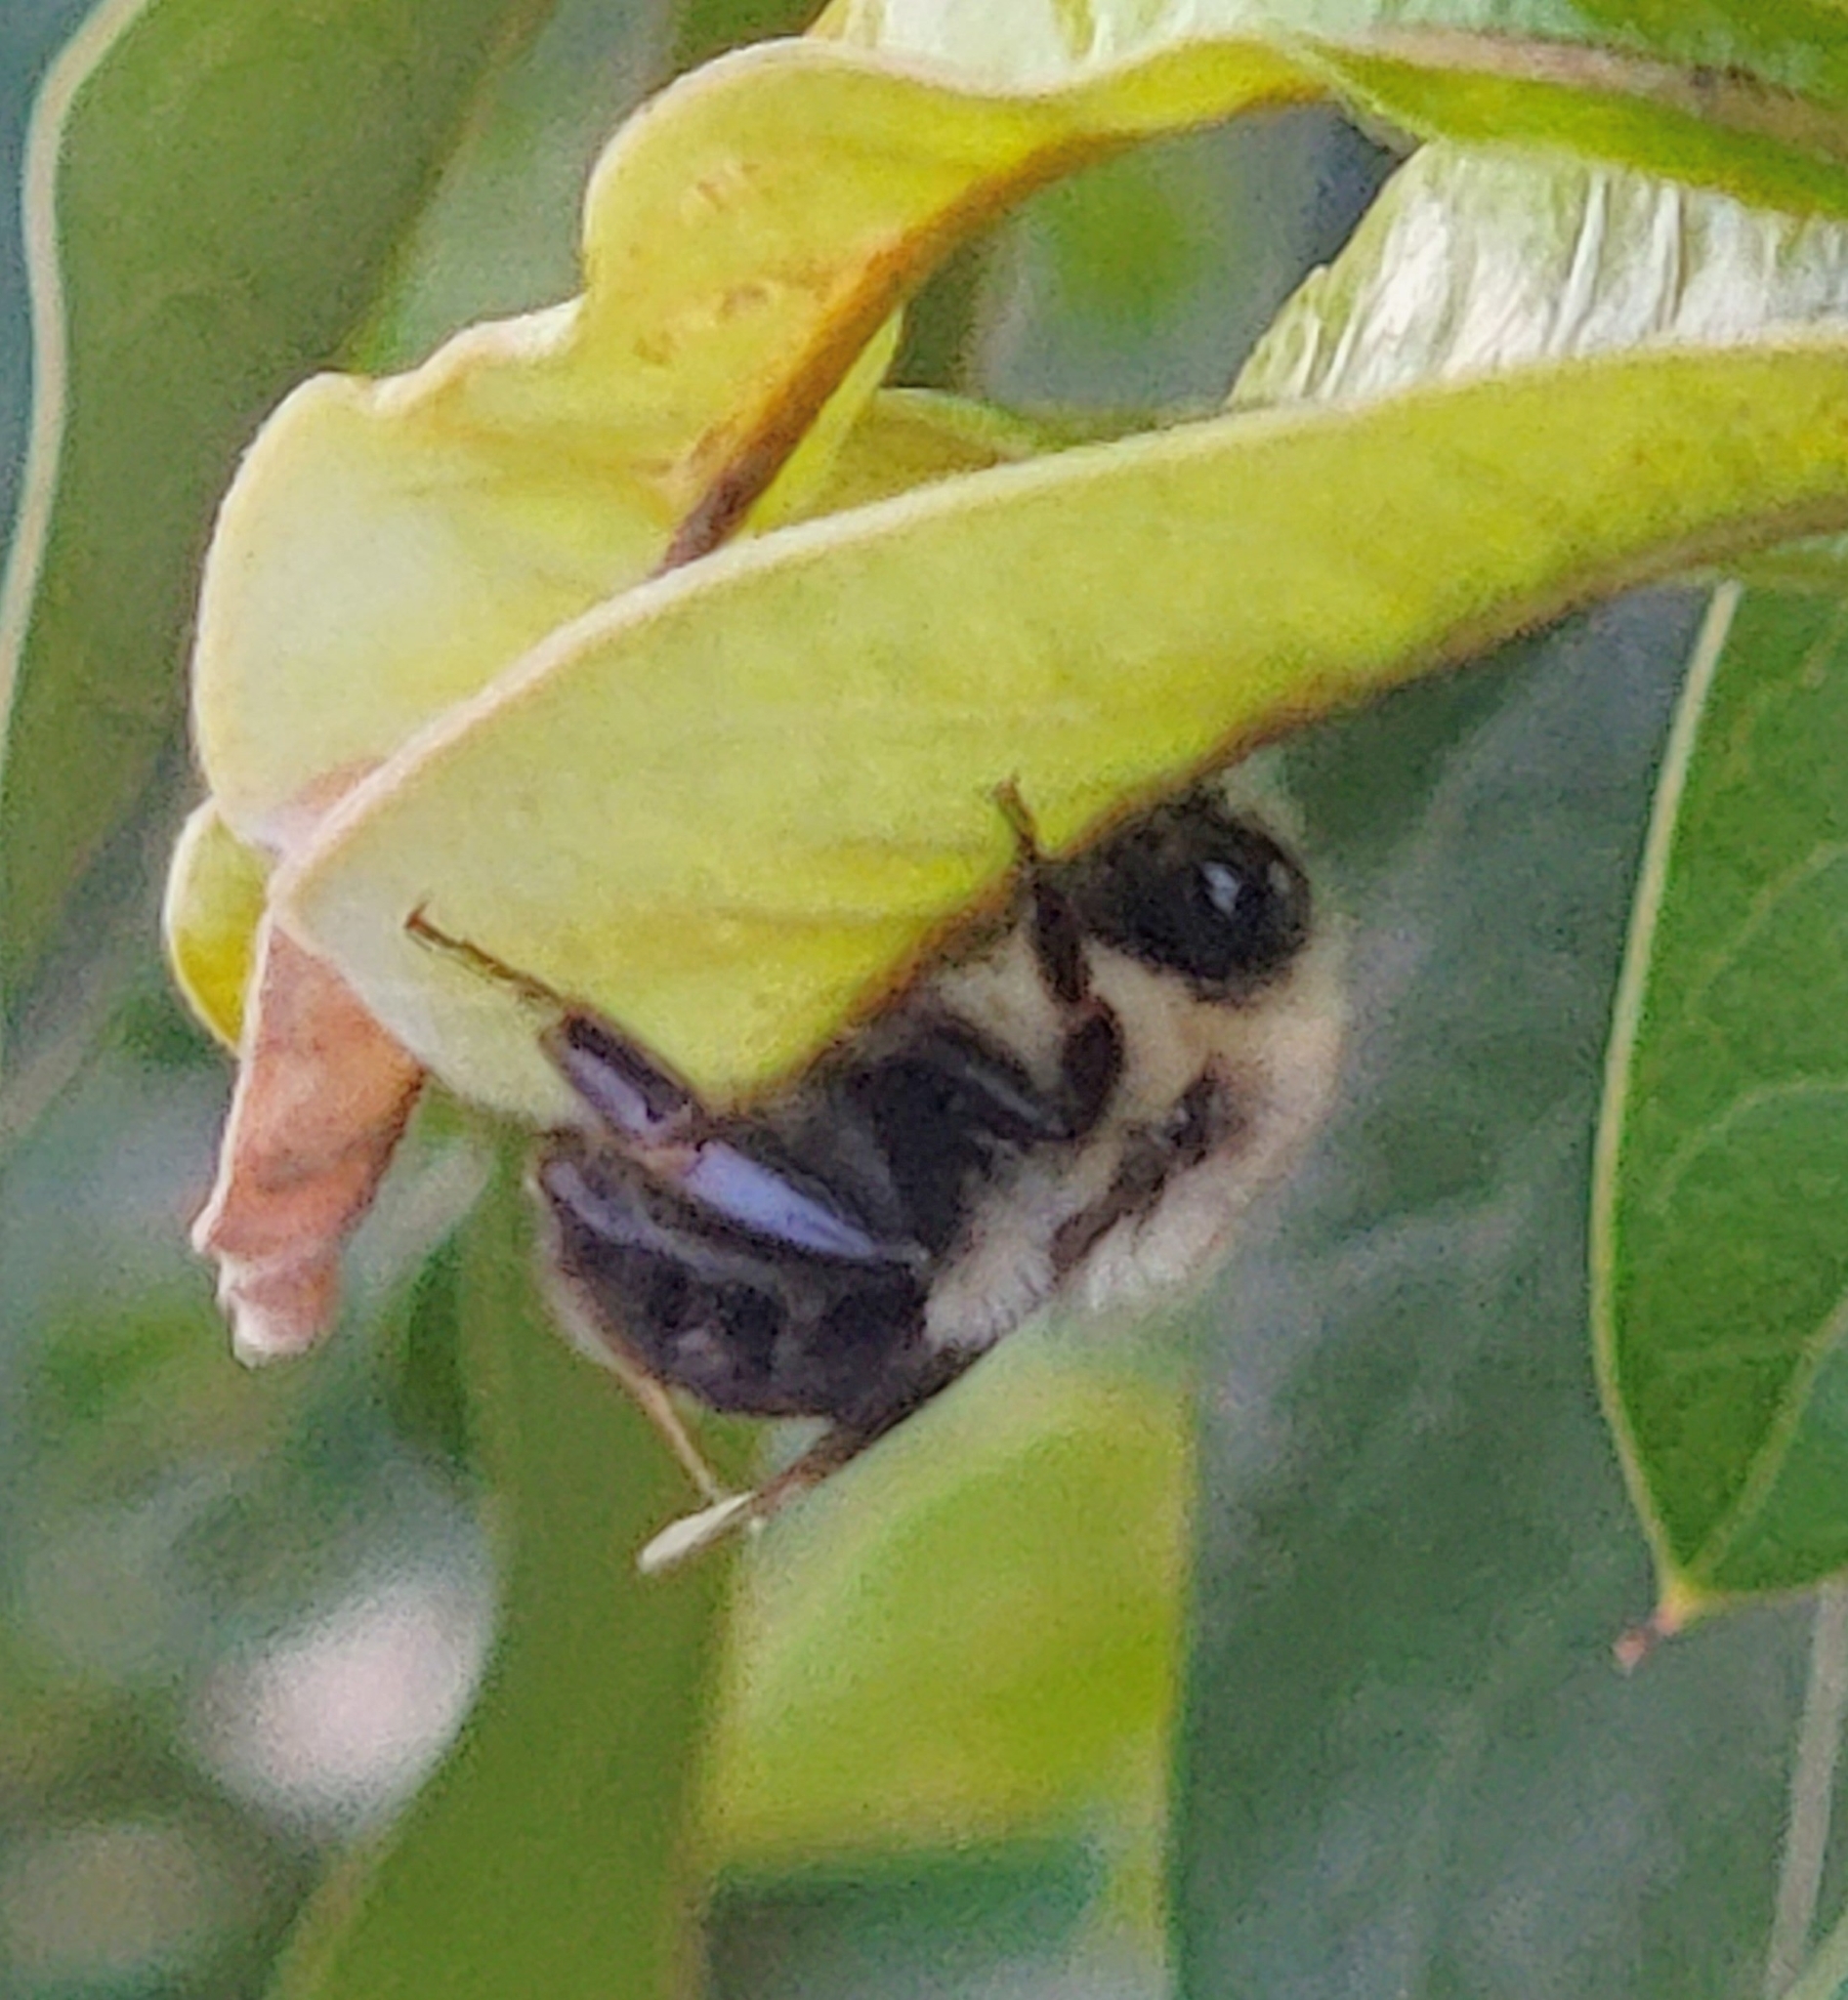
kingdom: Animalia
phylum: Arthropoda
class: Insecta
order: Hymenoptera
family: Apidae
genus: Bombus
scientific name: Bombus impatiens
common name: Common eastern bumble bee
